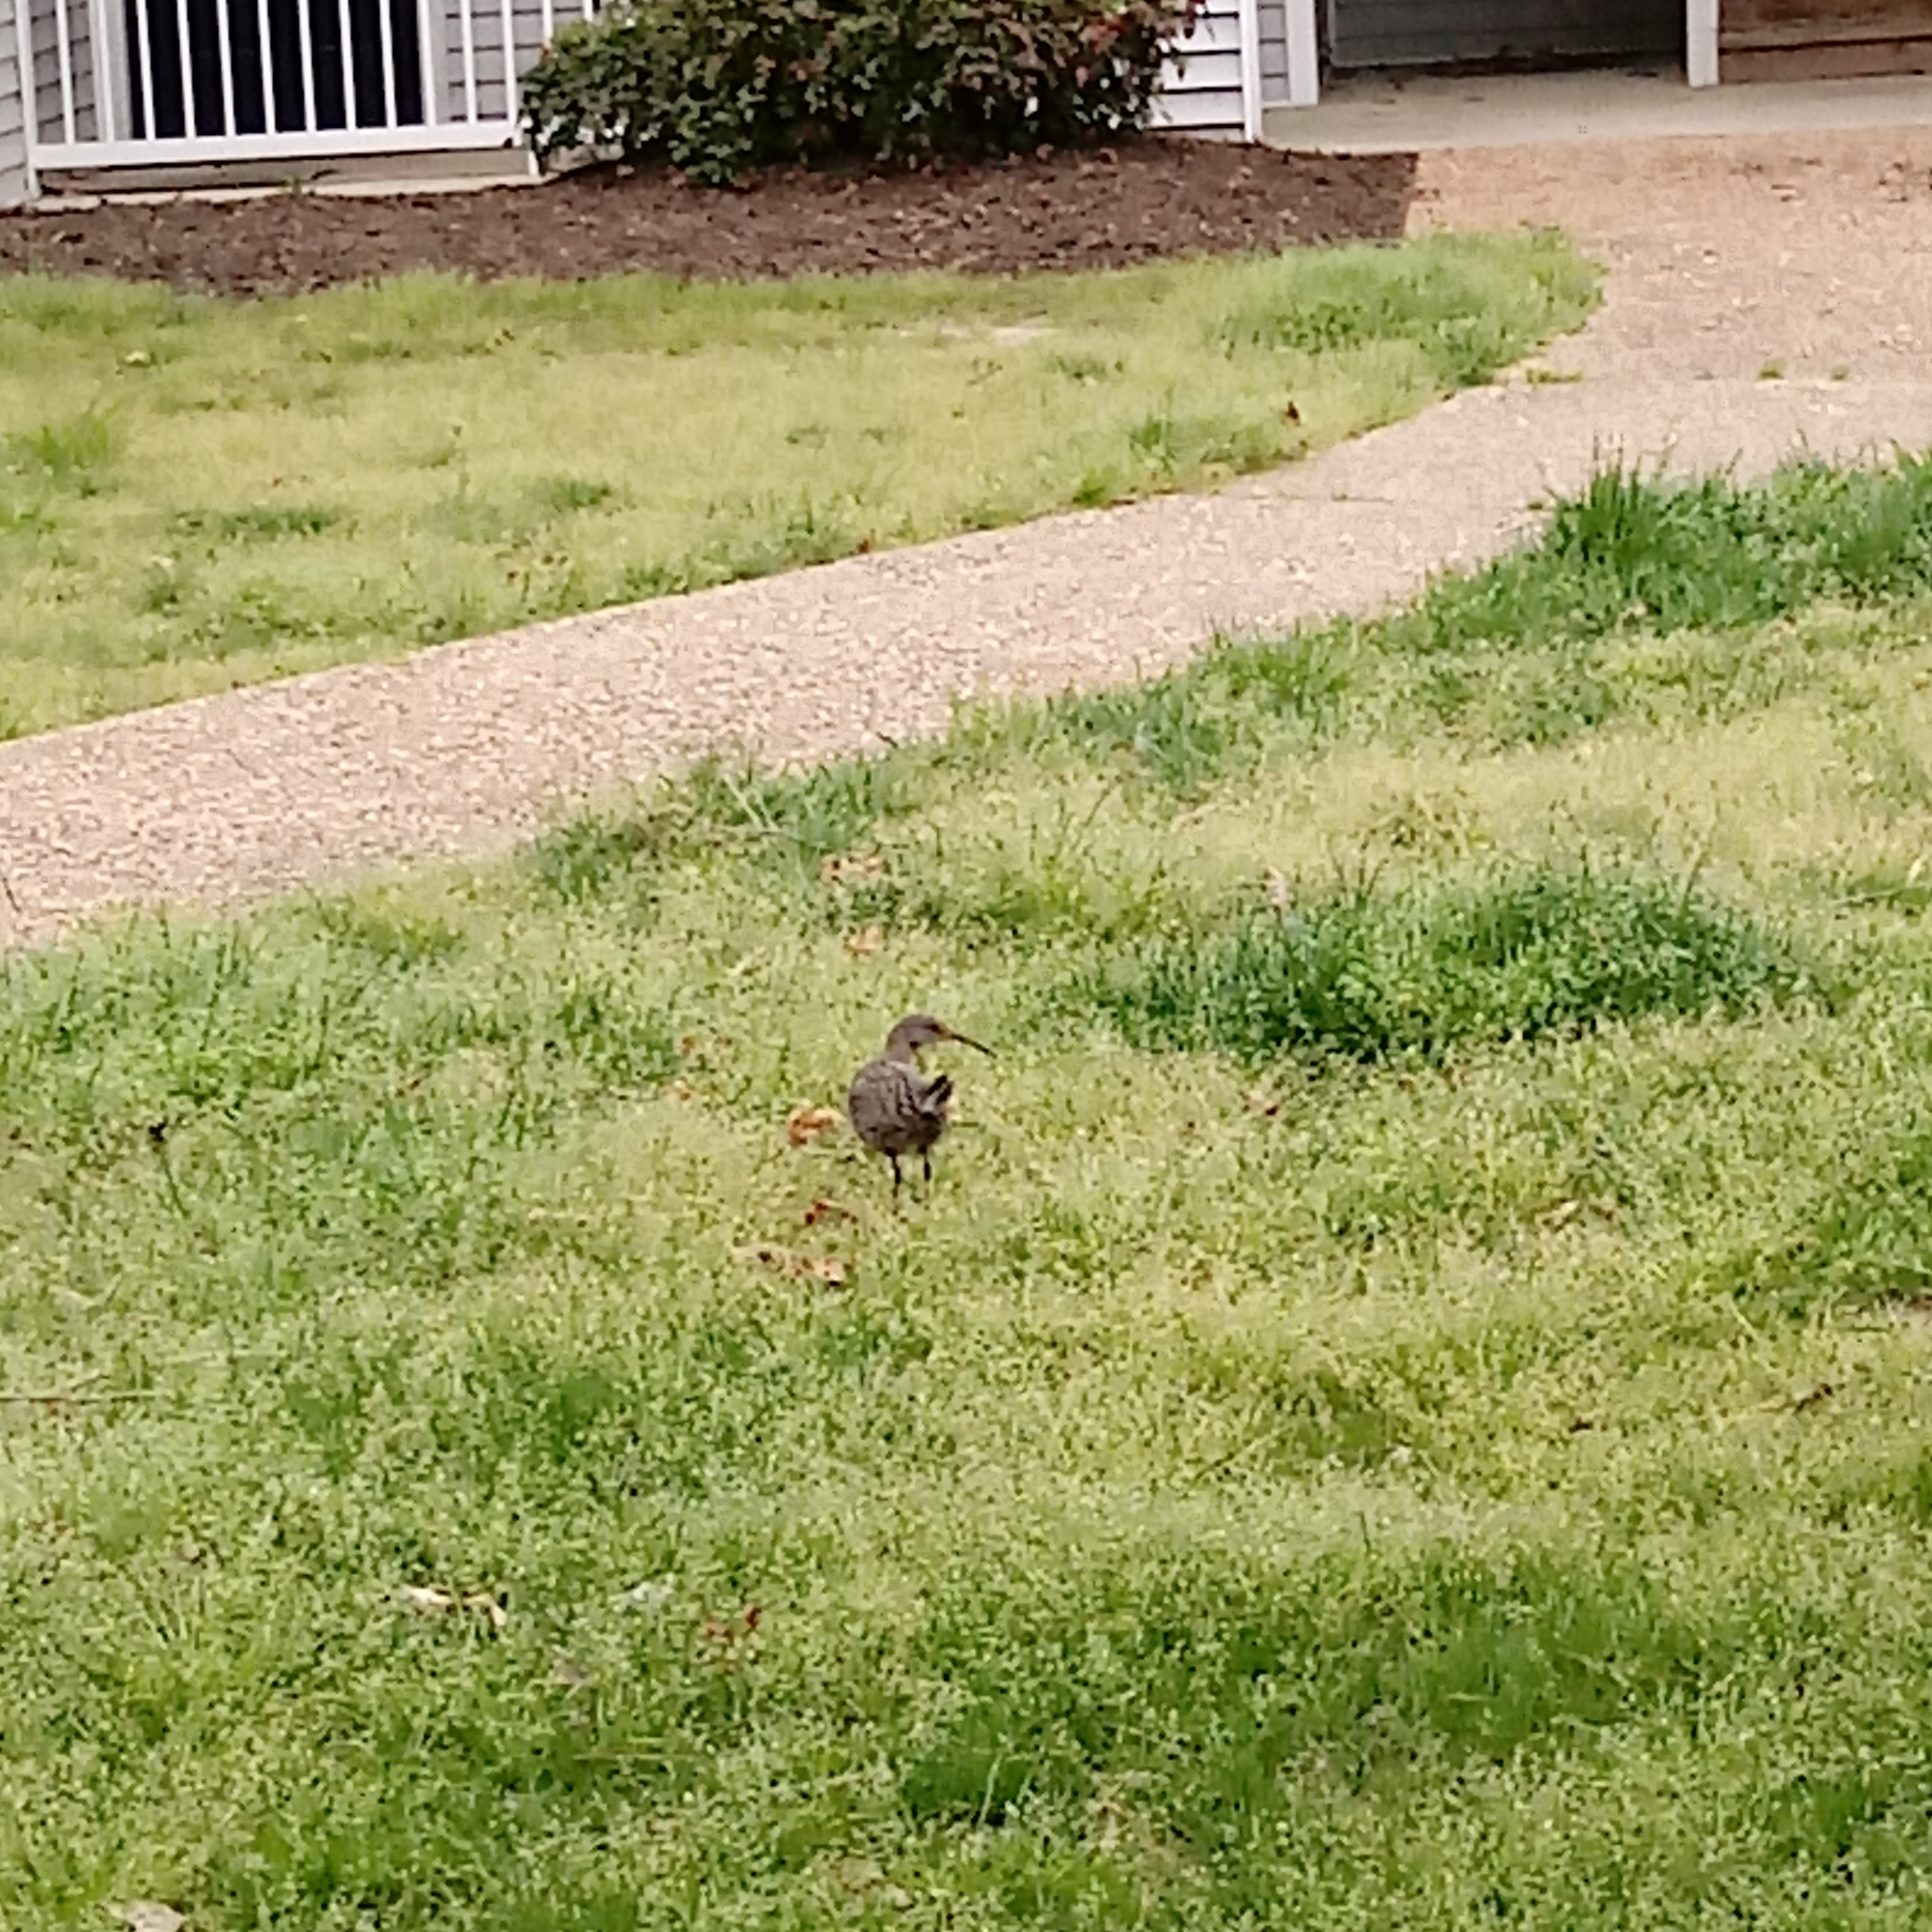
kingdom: Animalia
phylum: Chordata
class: Aves
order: Gruiformes
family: Rallidae
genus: Rallus
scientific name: Rallus crepitans
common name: Clapper rail
